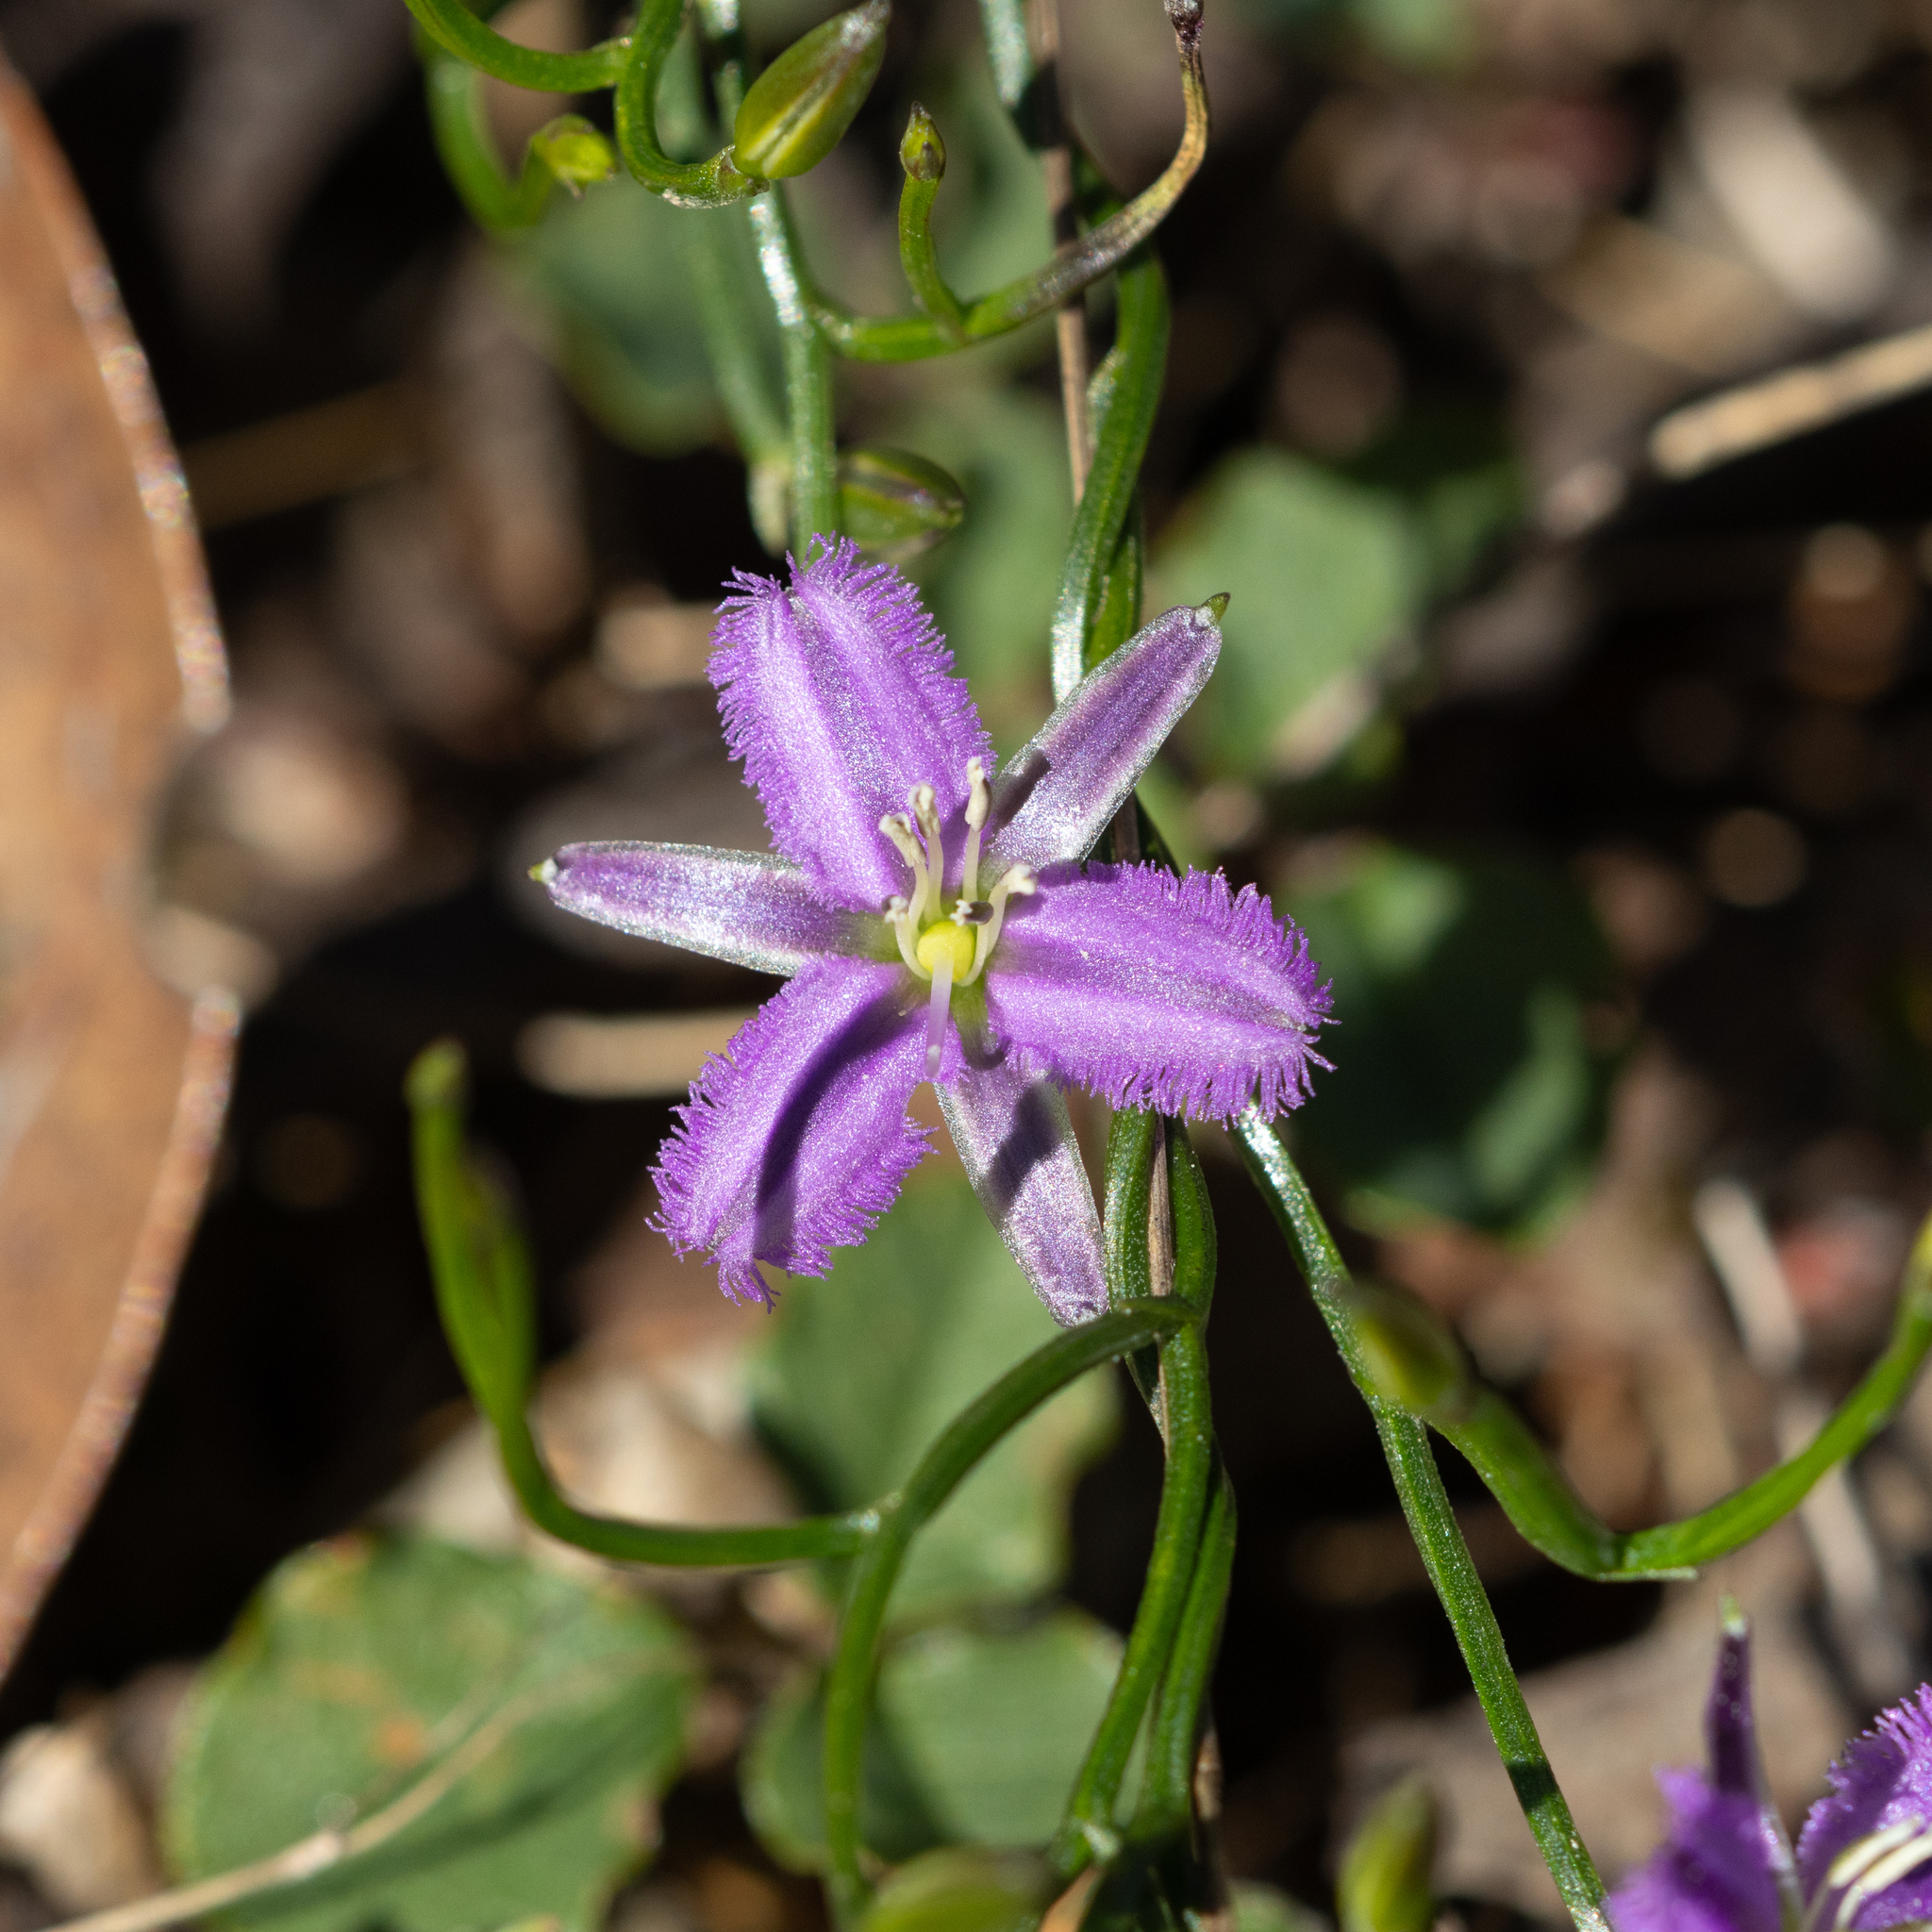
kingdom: Plantae
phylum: Tracheophyta
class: Liliopsida
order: Asparagales
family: Asparagaceae
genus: Thysanotus
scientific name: Thysanotus patersonii
